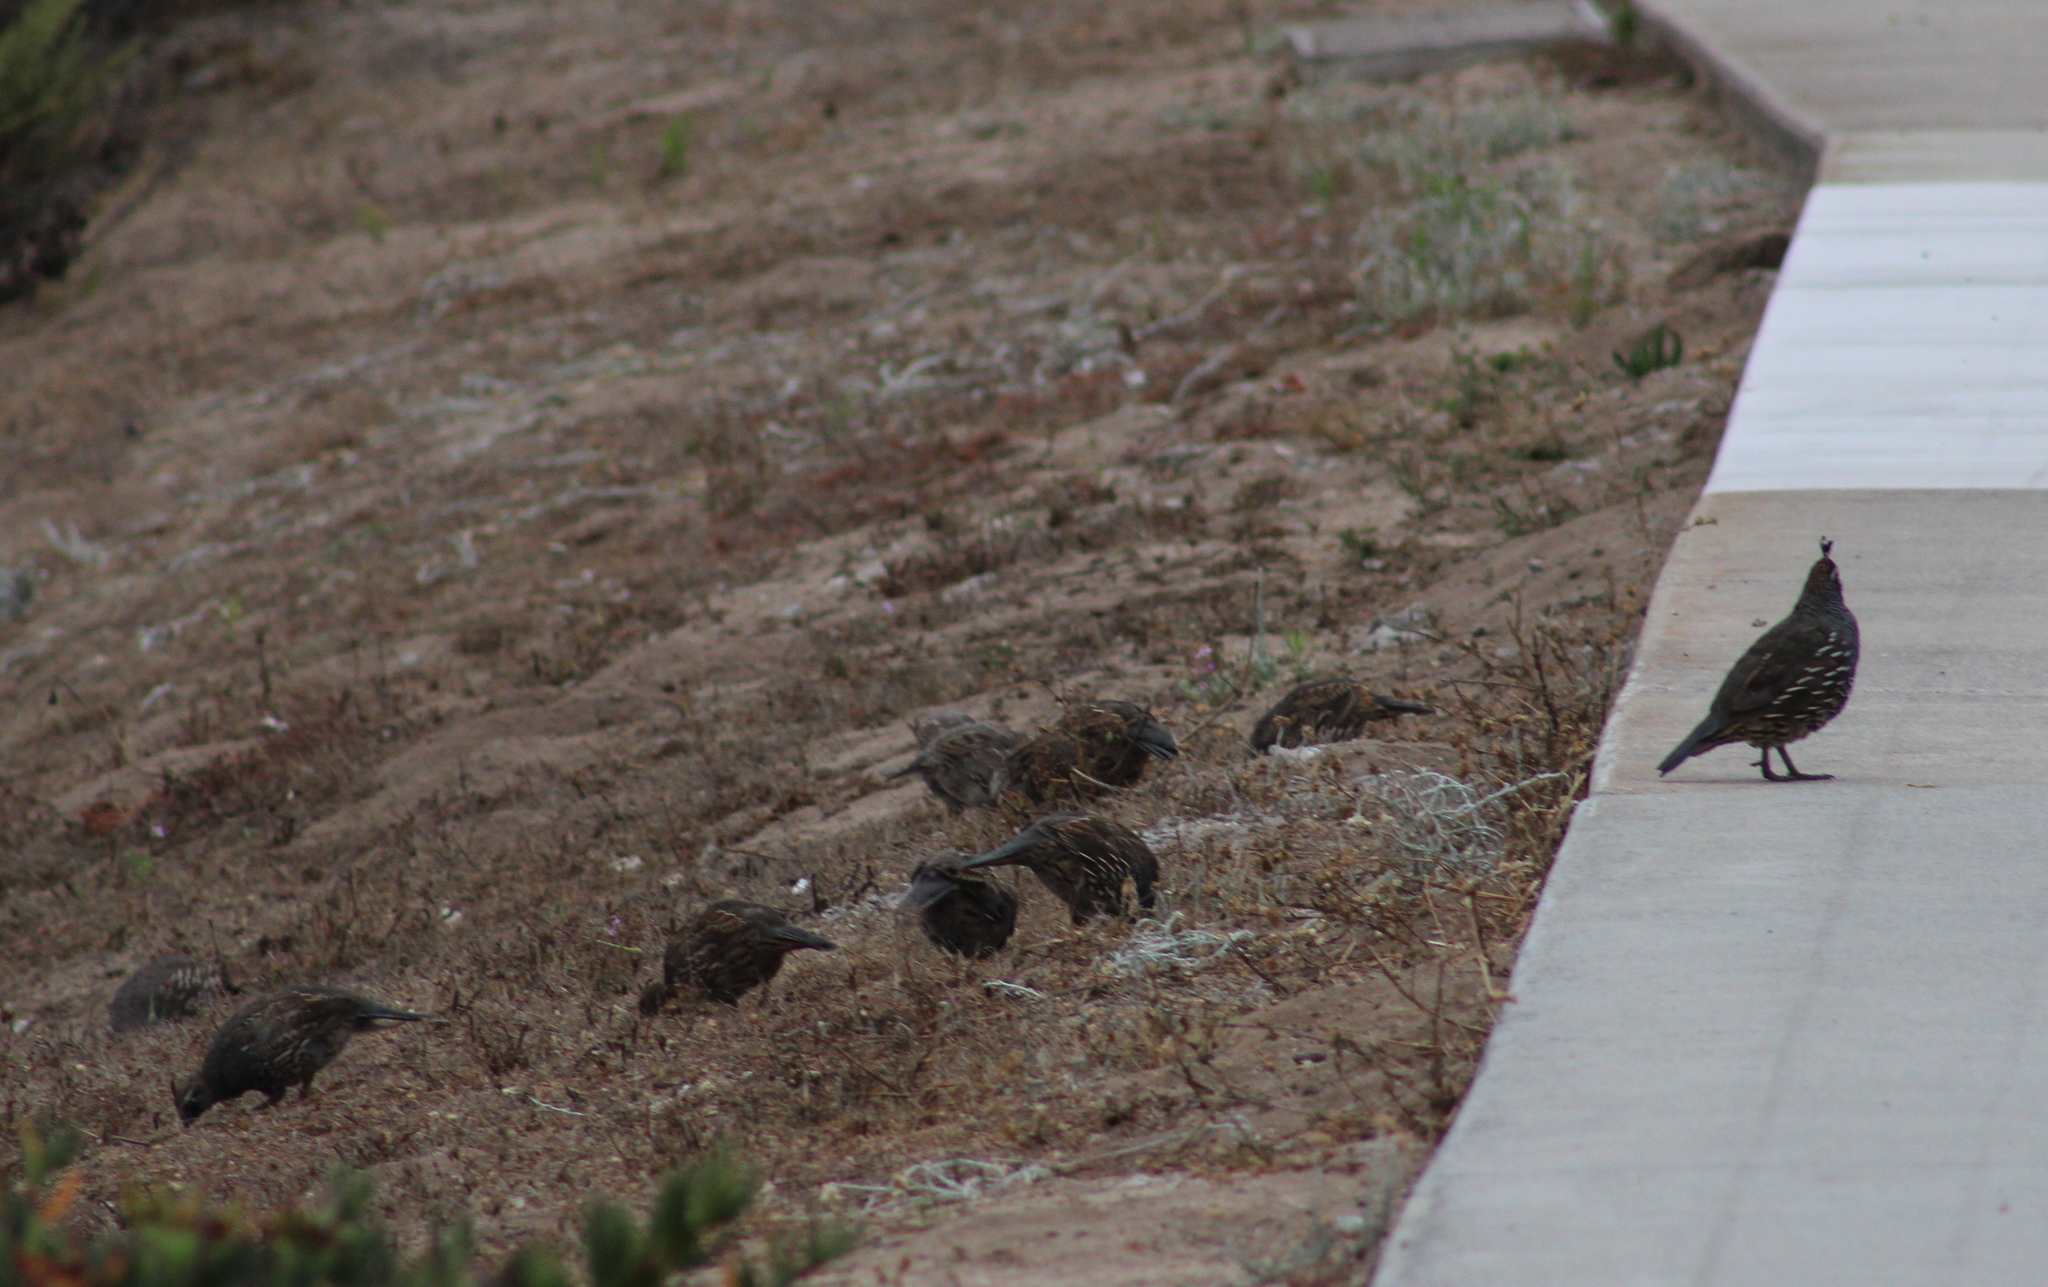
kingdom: Animalia
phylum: Chordata
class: Aves
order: Galliformes
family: Odontophoridae
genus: Callipepla
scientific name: Callipepla californica
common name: California quail
